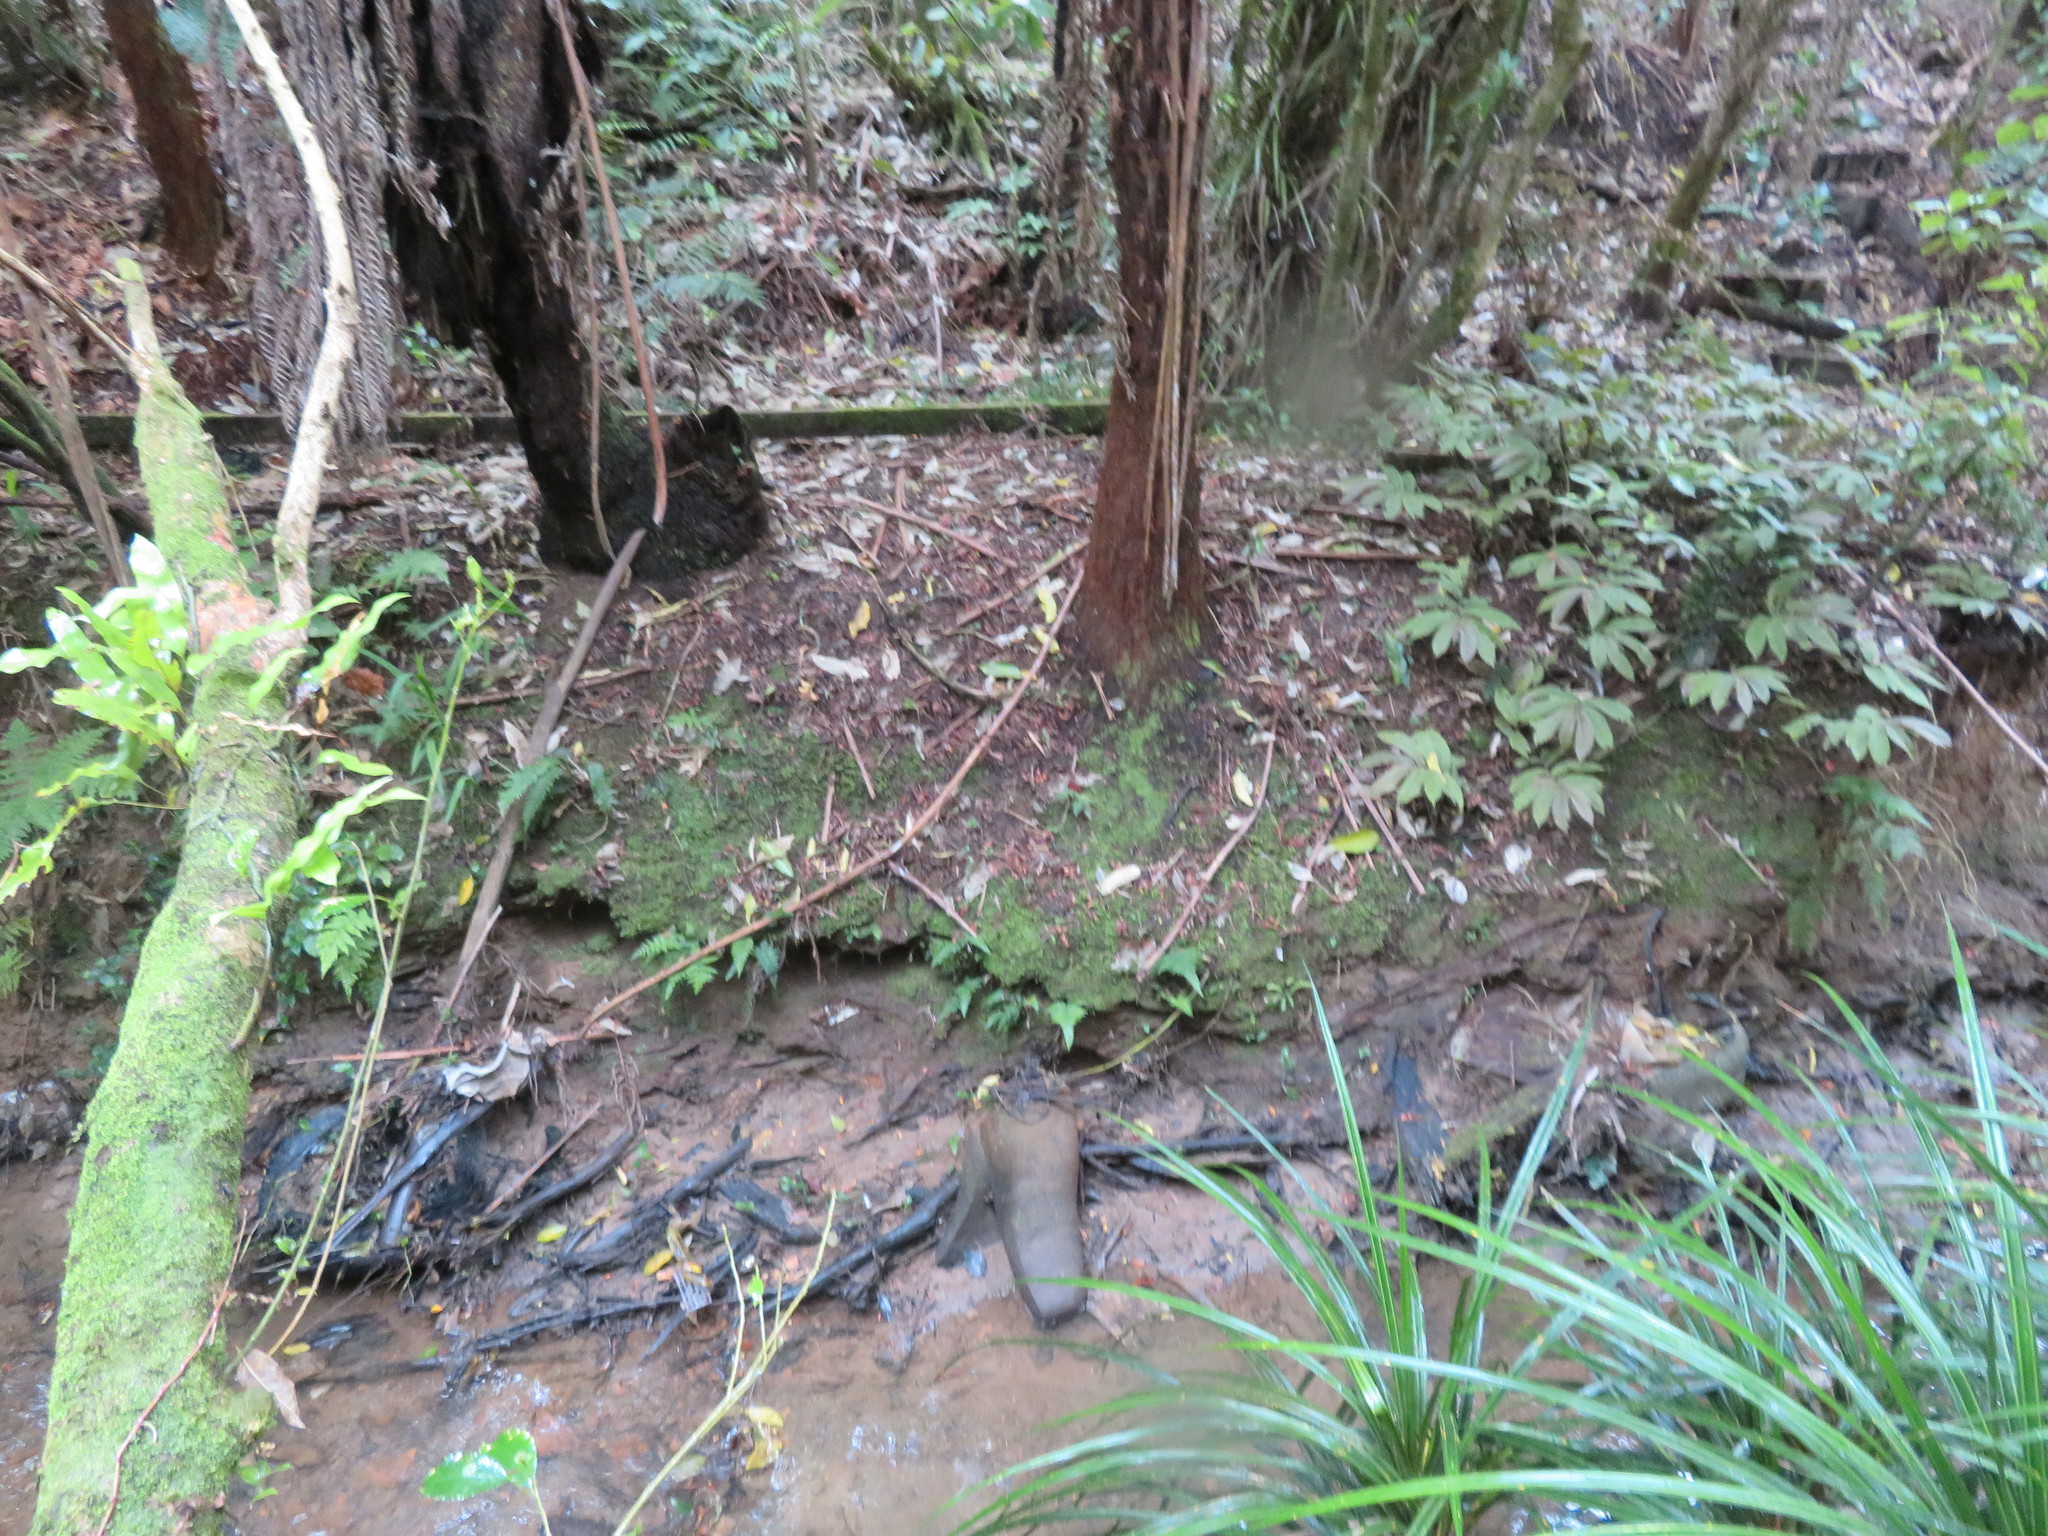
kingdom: Plantae
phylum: Tracheophyta
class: Polypodiopsida
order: Polypodiales
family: Polypodiaceae
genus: Lecanopteris
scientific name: Lecanopteris pustulata
